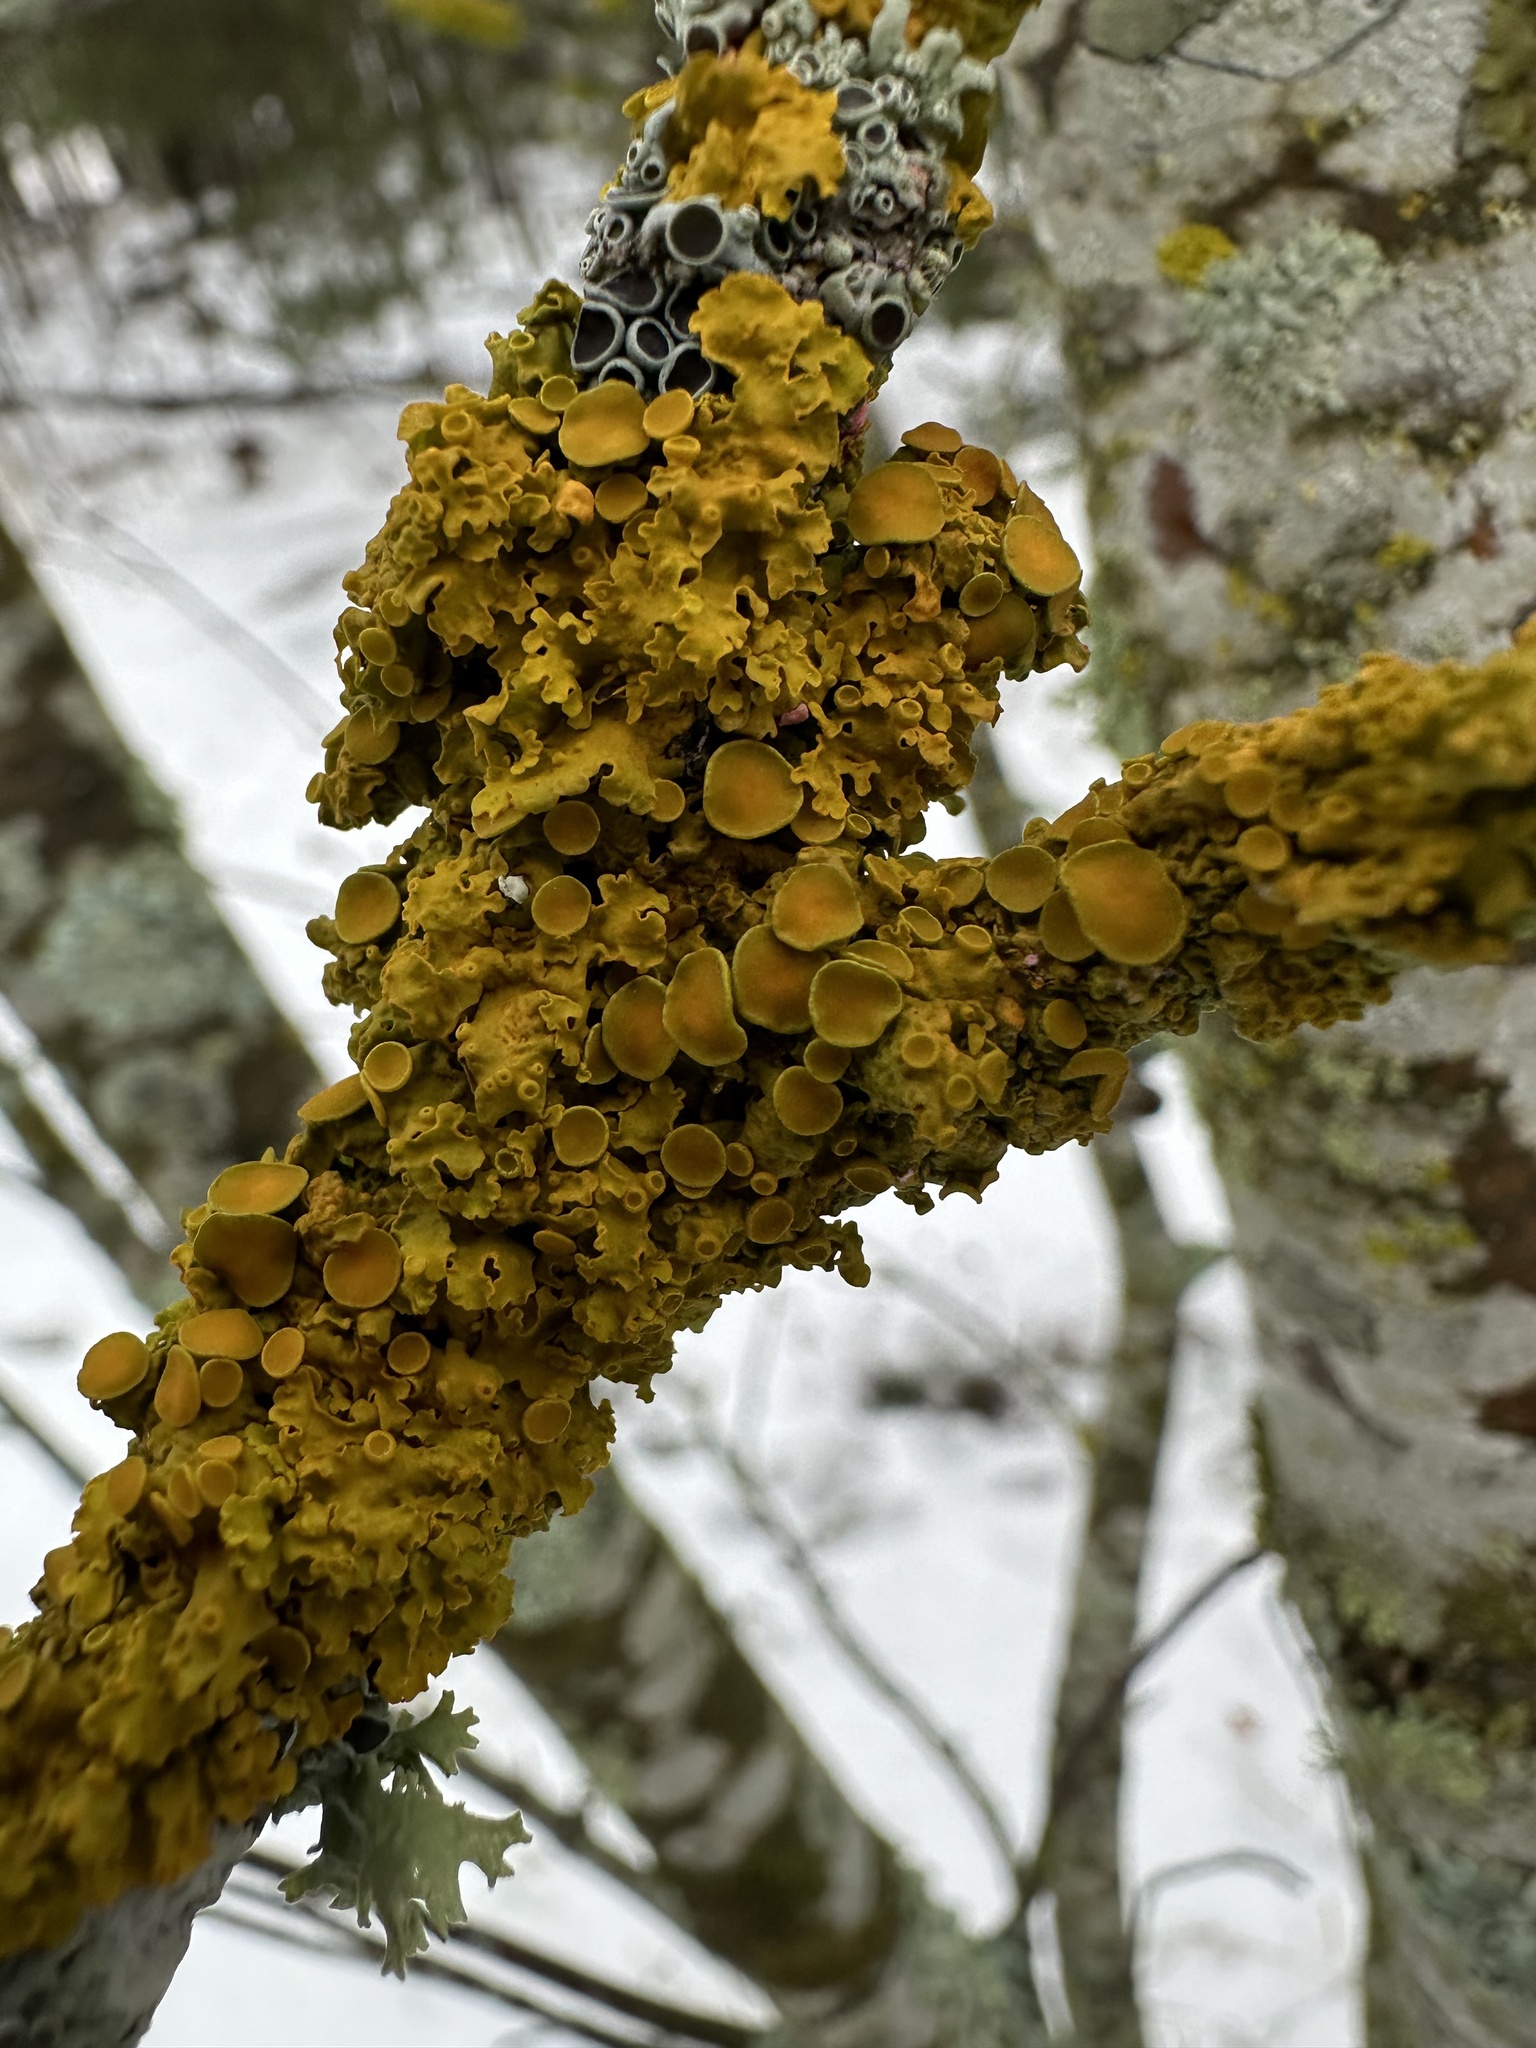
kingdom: Fungi
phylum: Ascomycota
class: Lecanoromycetes
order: Teloschistales
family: Teloschistaceae
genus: Xanthoria
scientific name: Xanthoria parietina
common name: Common orange lichen
